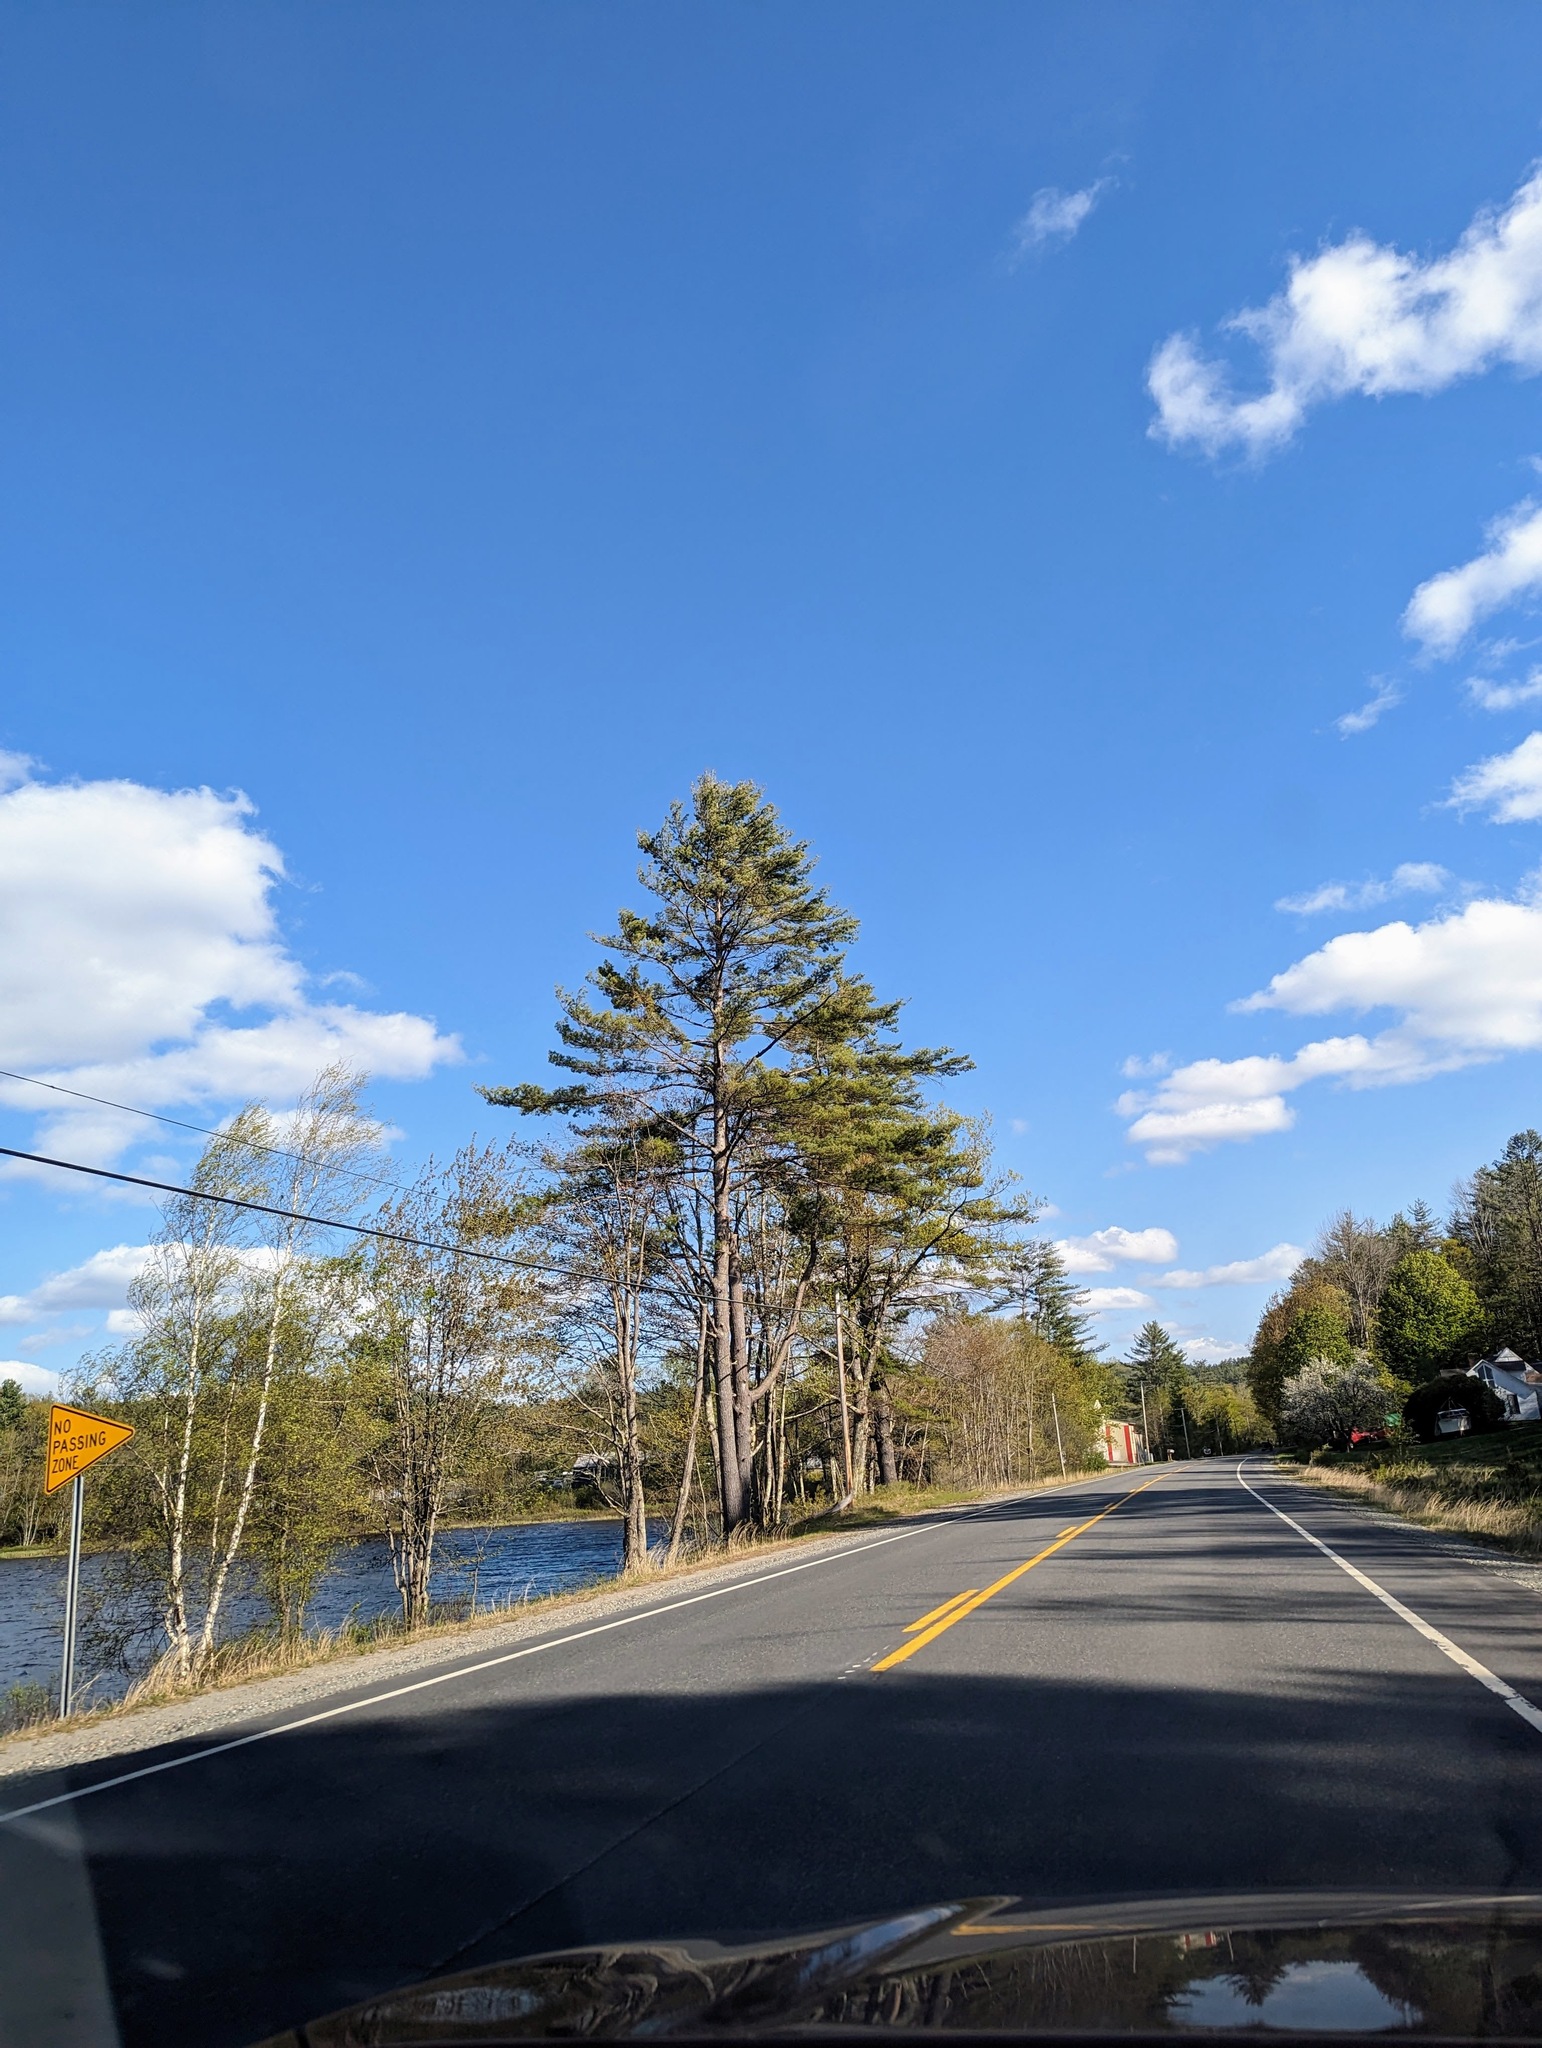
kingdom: Plantae
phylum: Tracheophyta
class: Pinopsida
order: Pinales
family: Pinaceae
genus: Pinus
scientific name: Pinus strobus
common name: Weymouth pine
